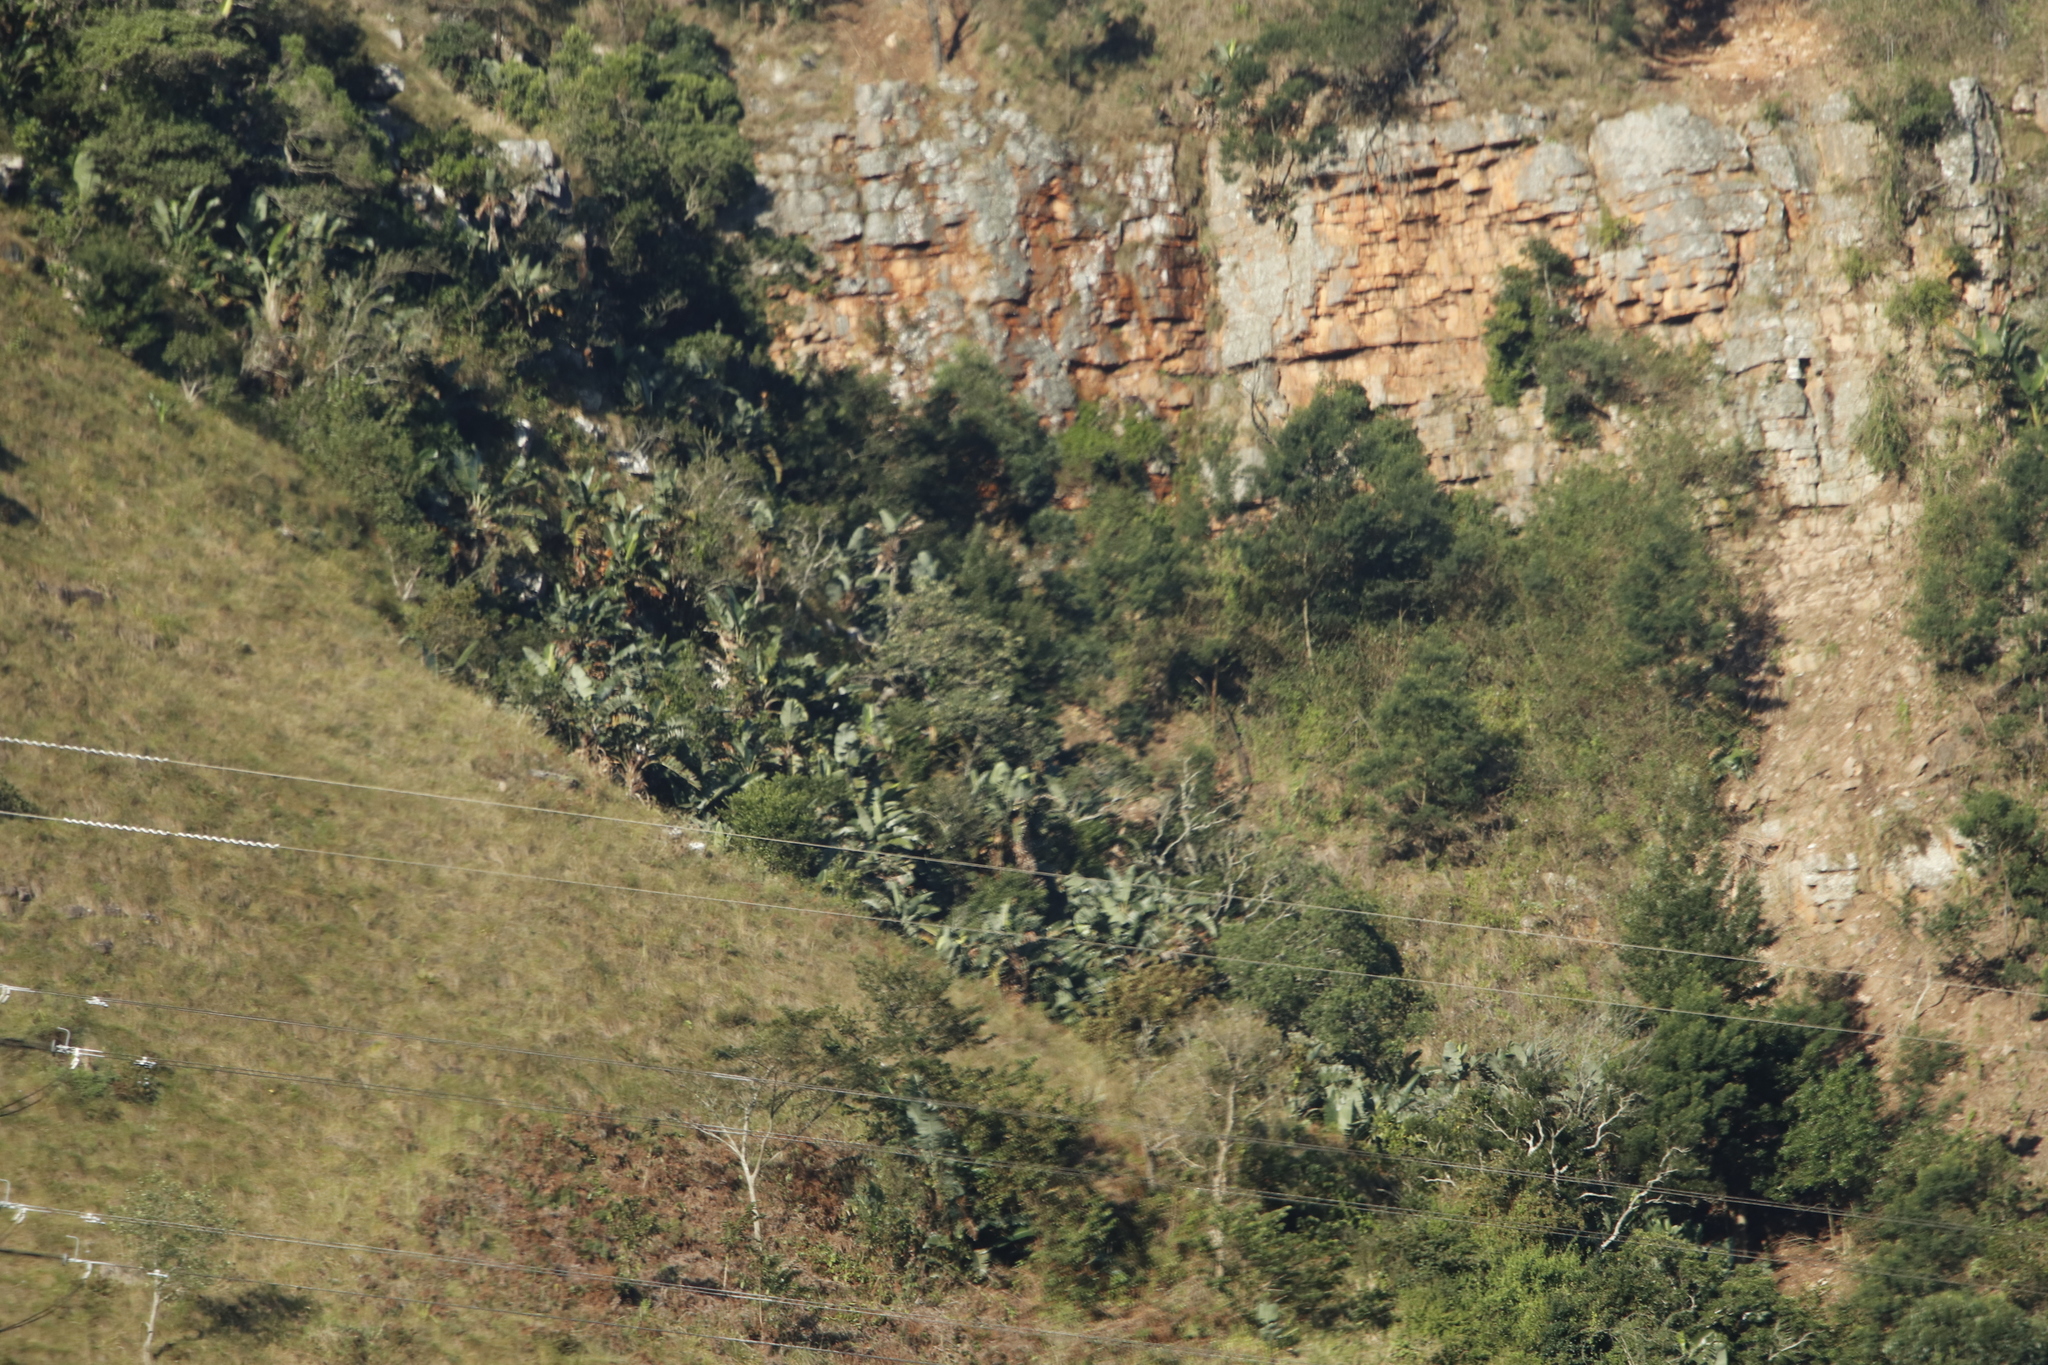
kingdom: Plantae
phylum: Tracheophyta
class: Liliopsida
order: Zingiberales
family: Strelitziaceae
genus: Strelitzia
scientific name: Strelitzia nicolai
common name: Bird-of-paradise tree
